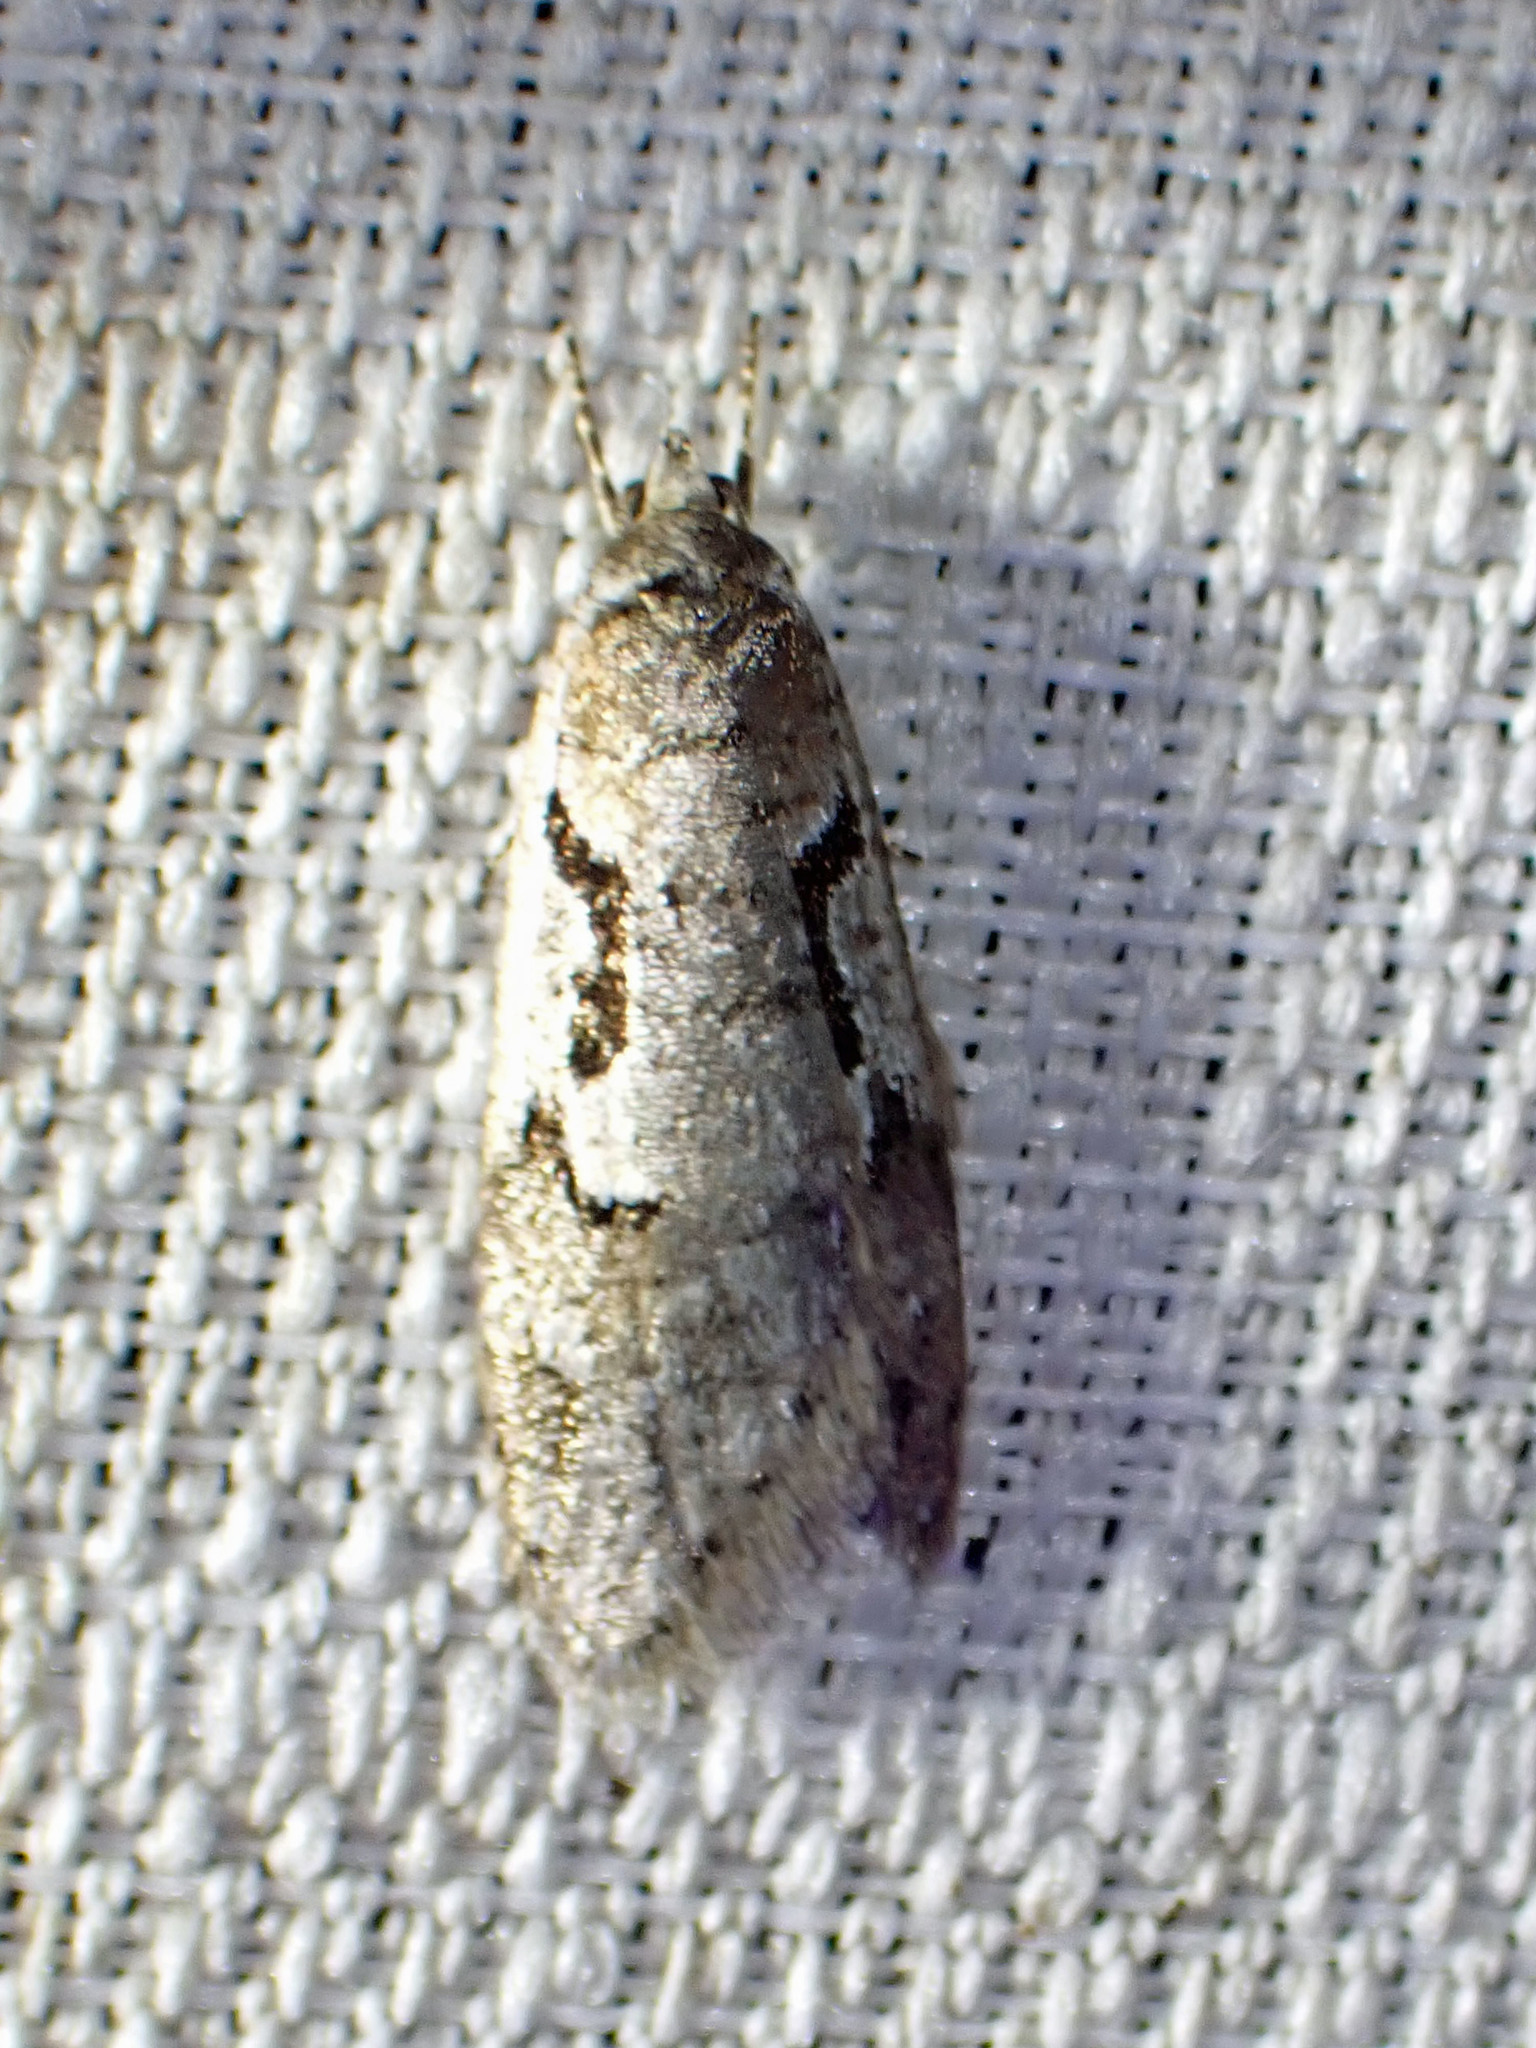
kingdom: Animalia
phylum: Arthropoda
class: Insecta
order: Lepidoptera
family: Depressariidae
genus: Semioscopis
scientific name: Semioscopis merriccella
